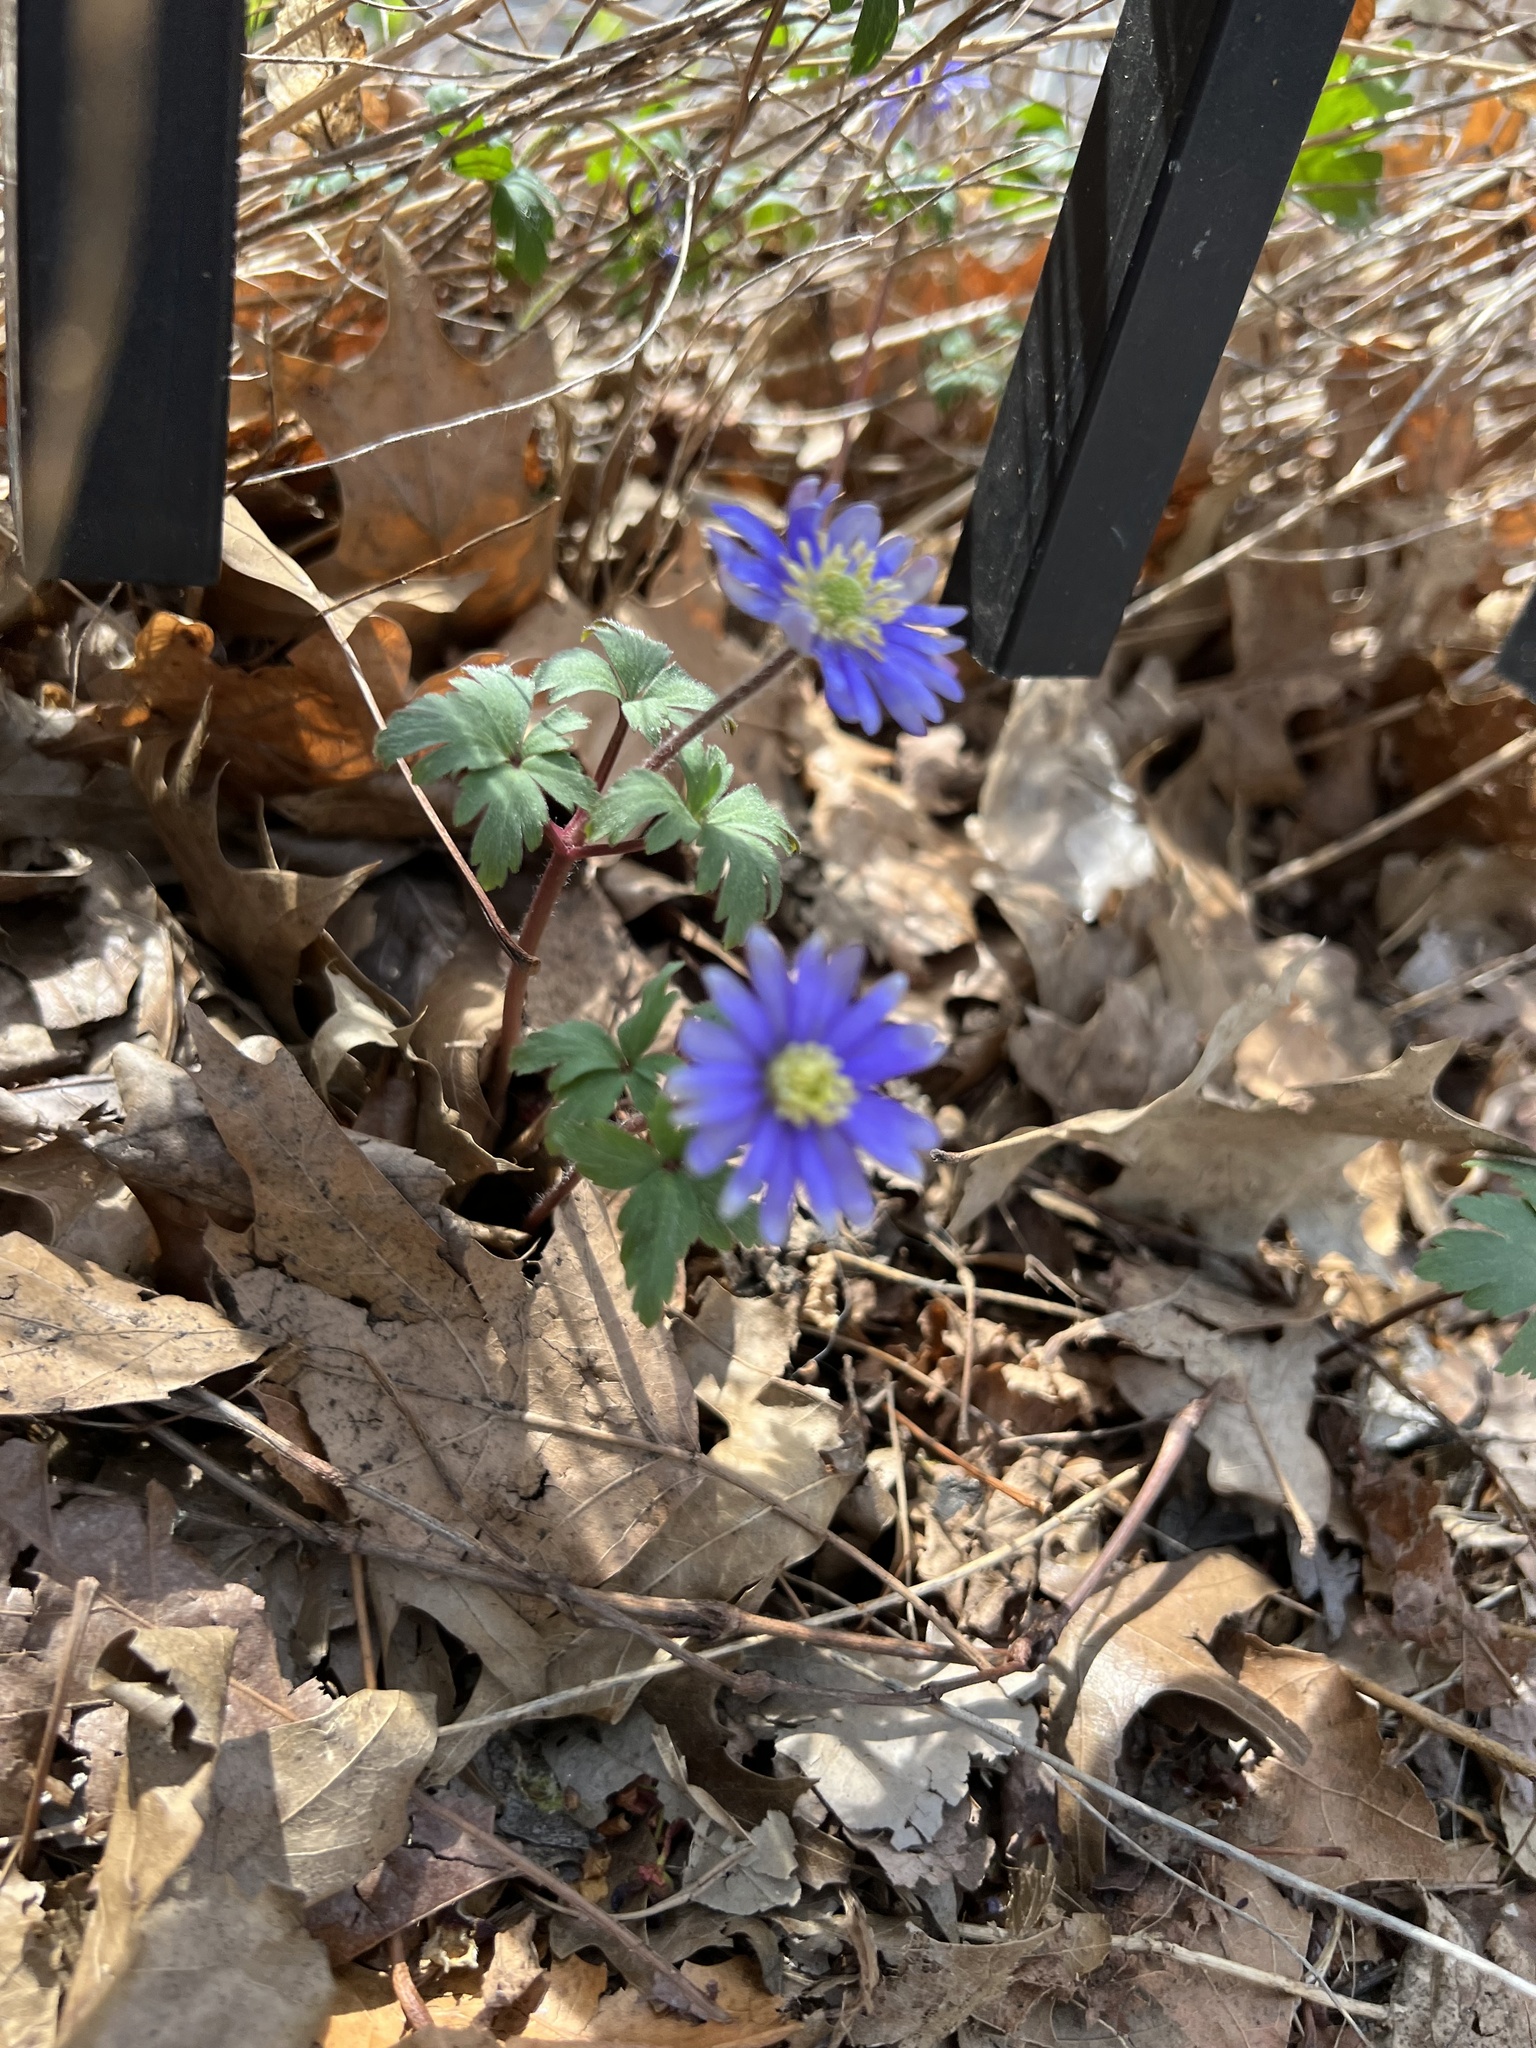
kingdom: Plantae
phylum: Tracheophyta
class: Magnoliopsida
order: Ranunculales
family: Ranunculaceae
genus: Anemone
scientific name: Anemone blanda
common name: Balkan anemone
